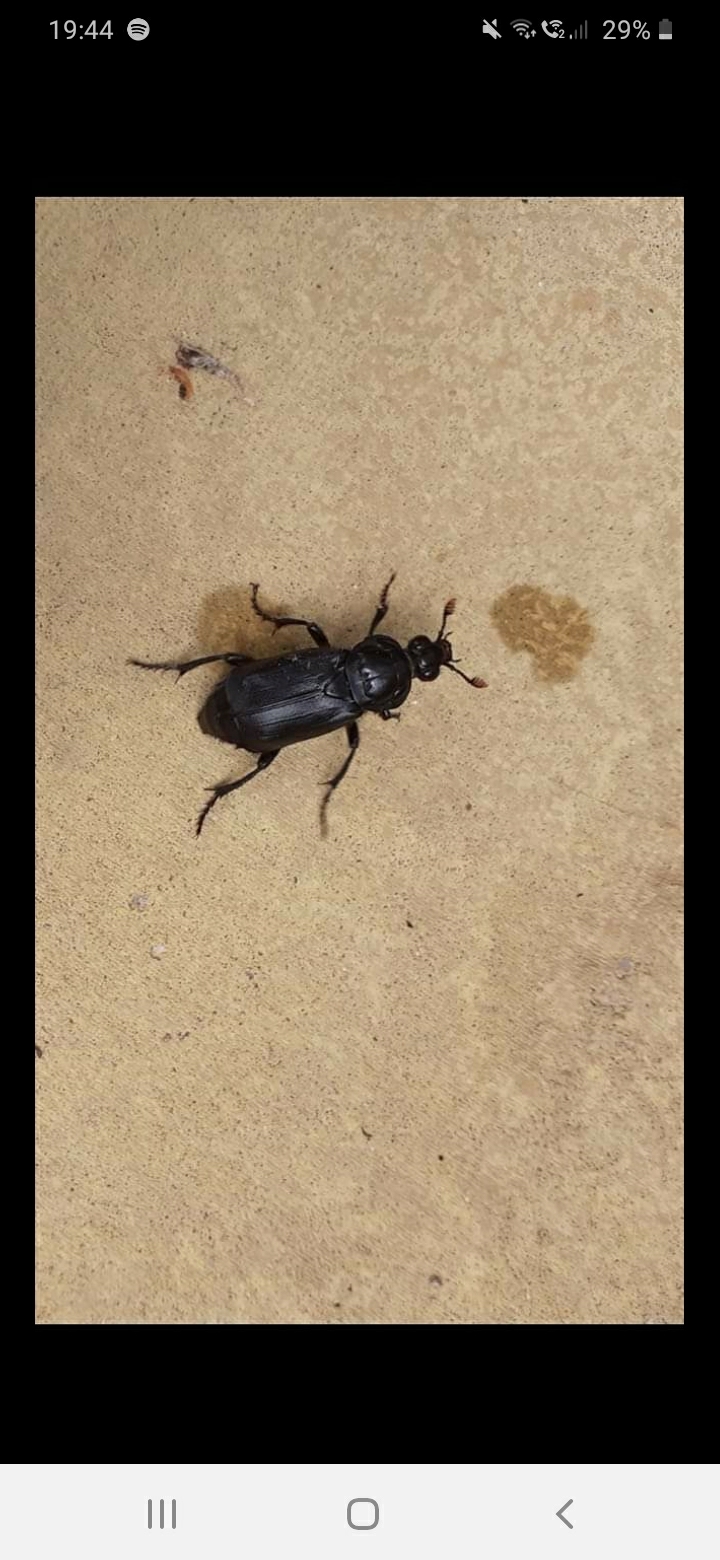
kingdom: Animalia
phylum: Arthropoda
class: Insecta
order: Coleoptera
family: Staphylinidae
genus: Nicrophorus
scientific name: Nicrophorus humator
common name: Black sexton beetle
